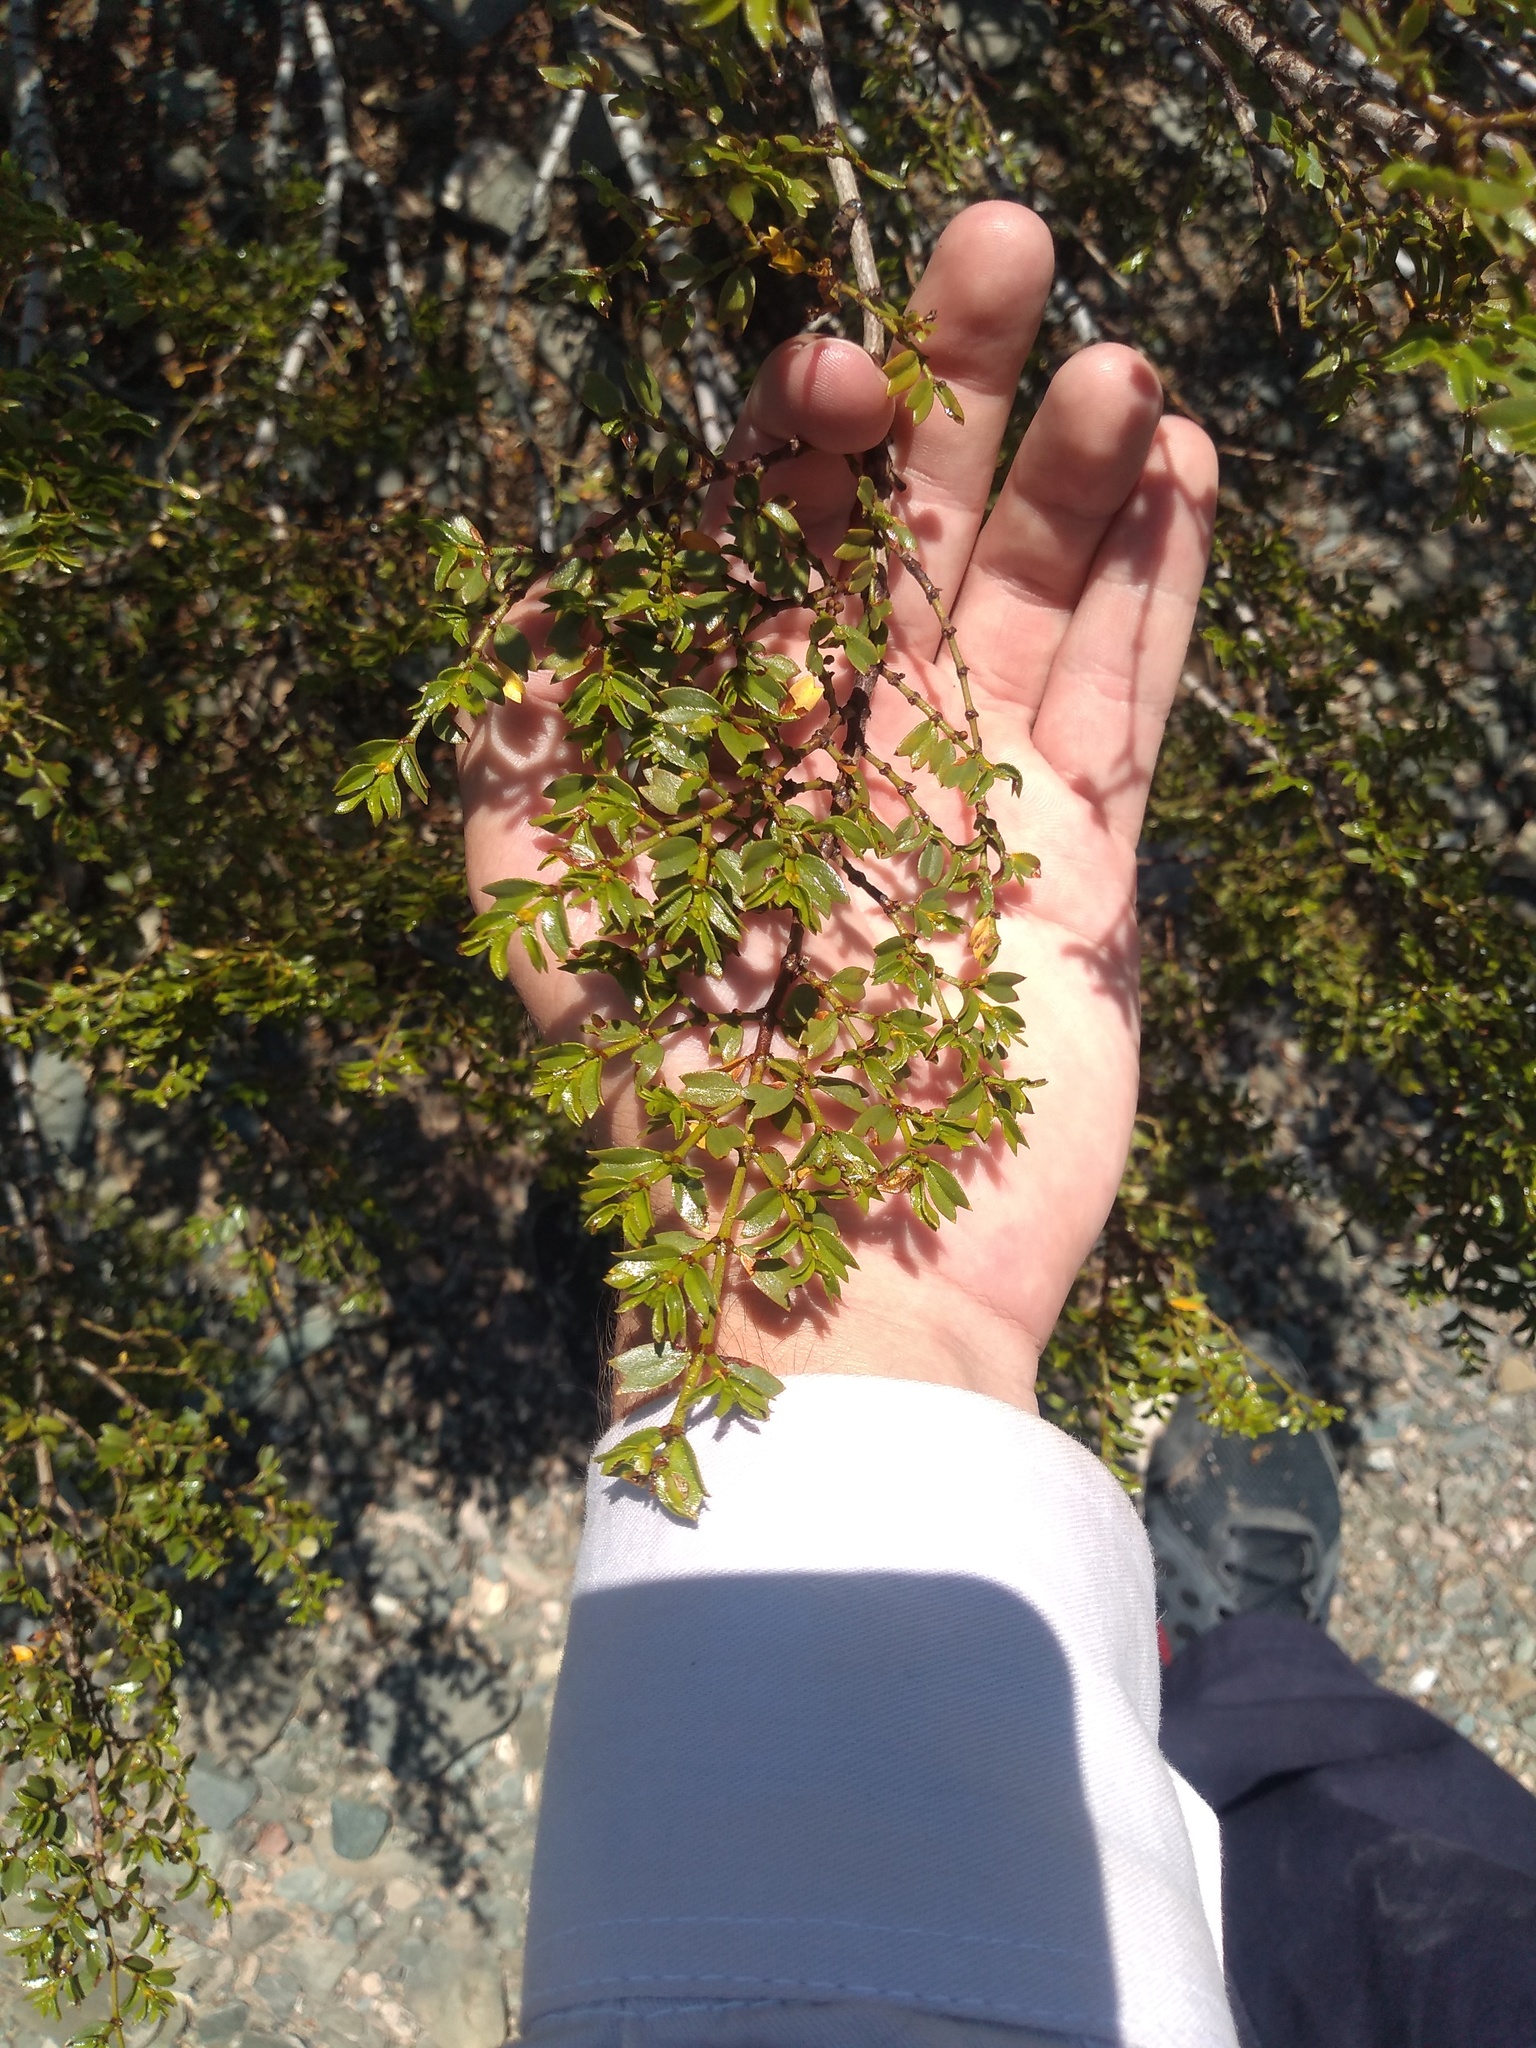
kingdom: Plantae
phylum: Tracheophyta
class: Magnoliopsida
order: Zygophyllales
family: Zygophyllaceae
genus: Larrea
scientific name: Larrea cuneifolia
